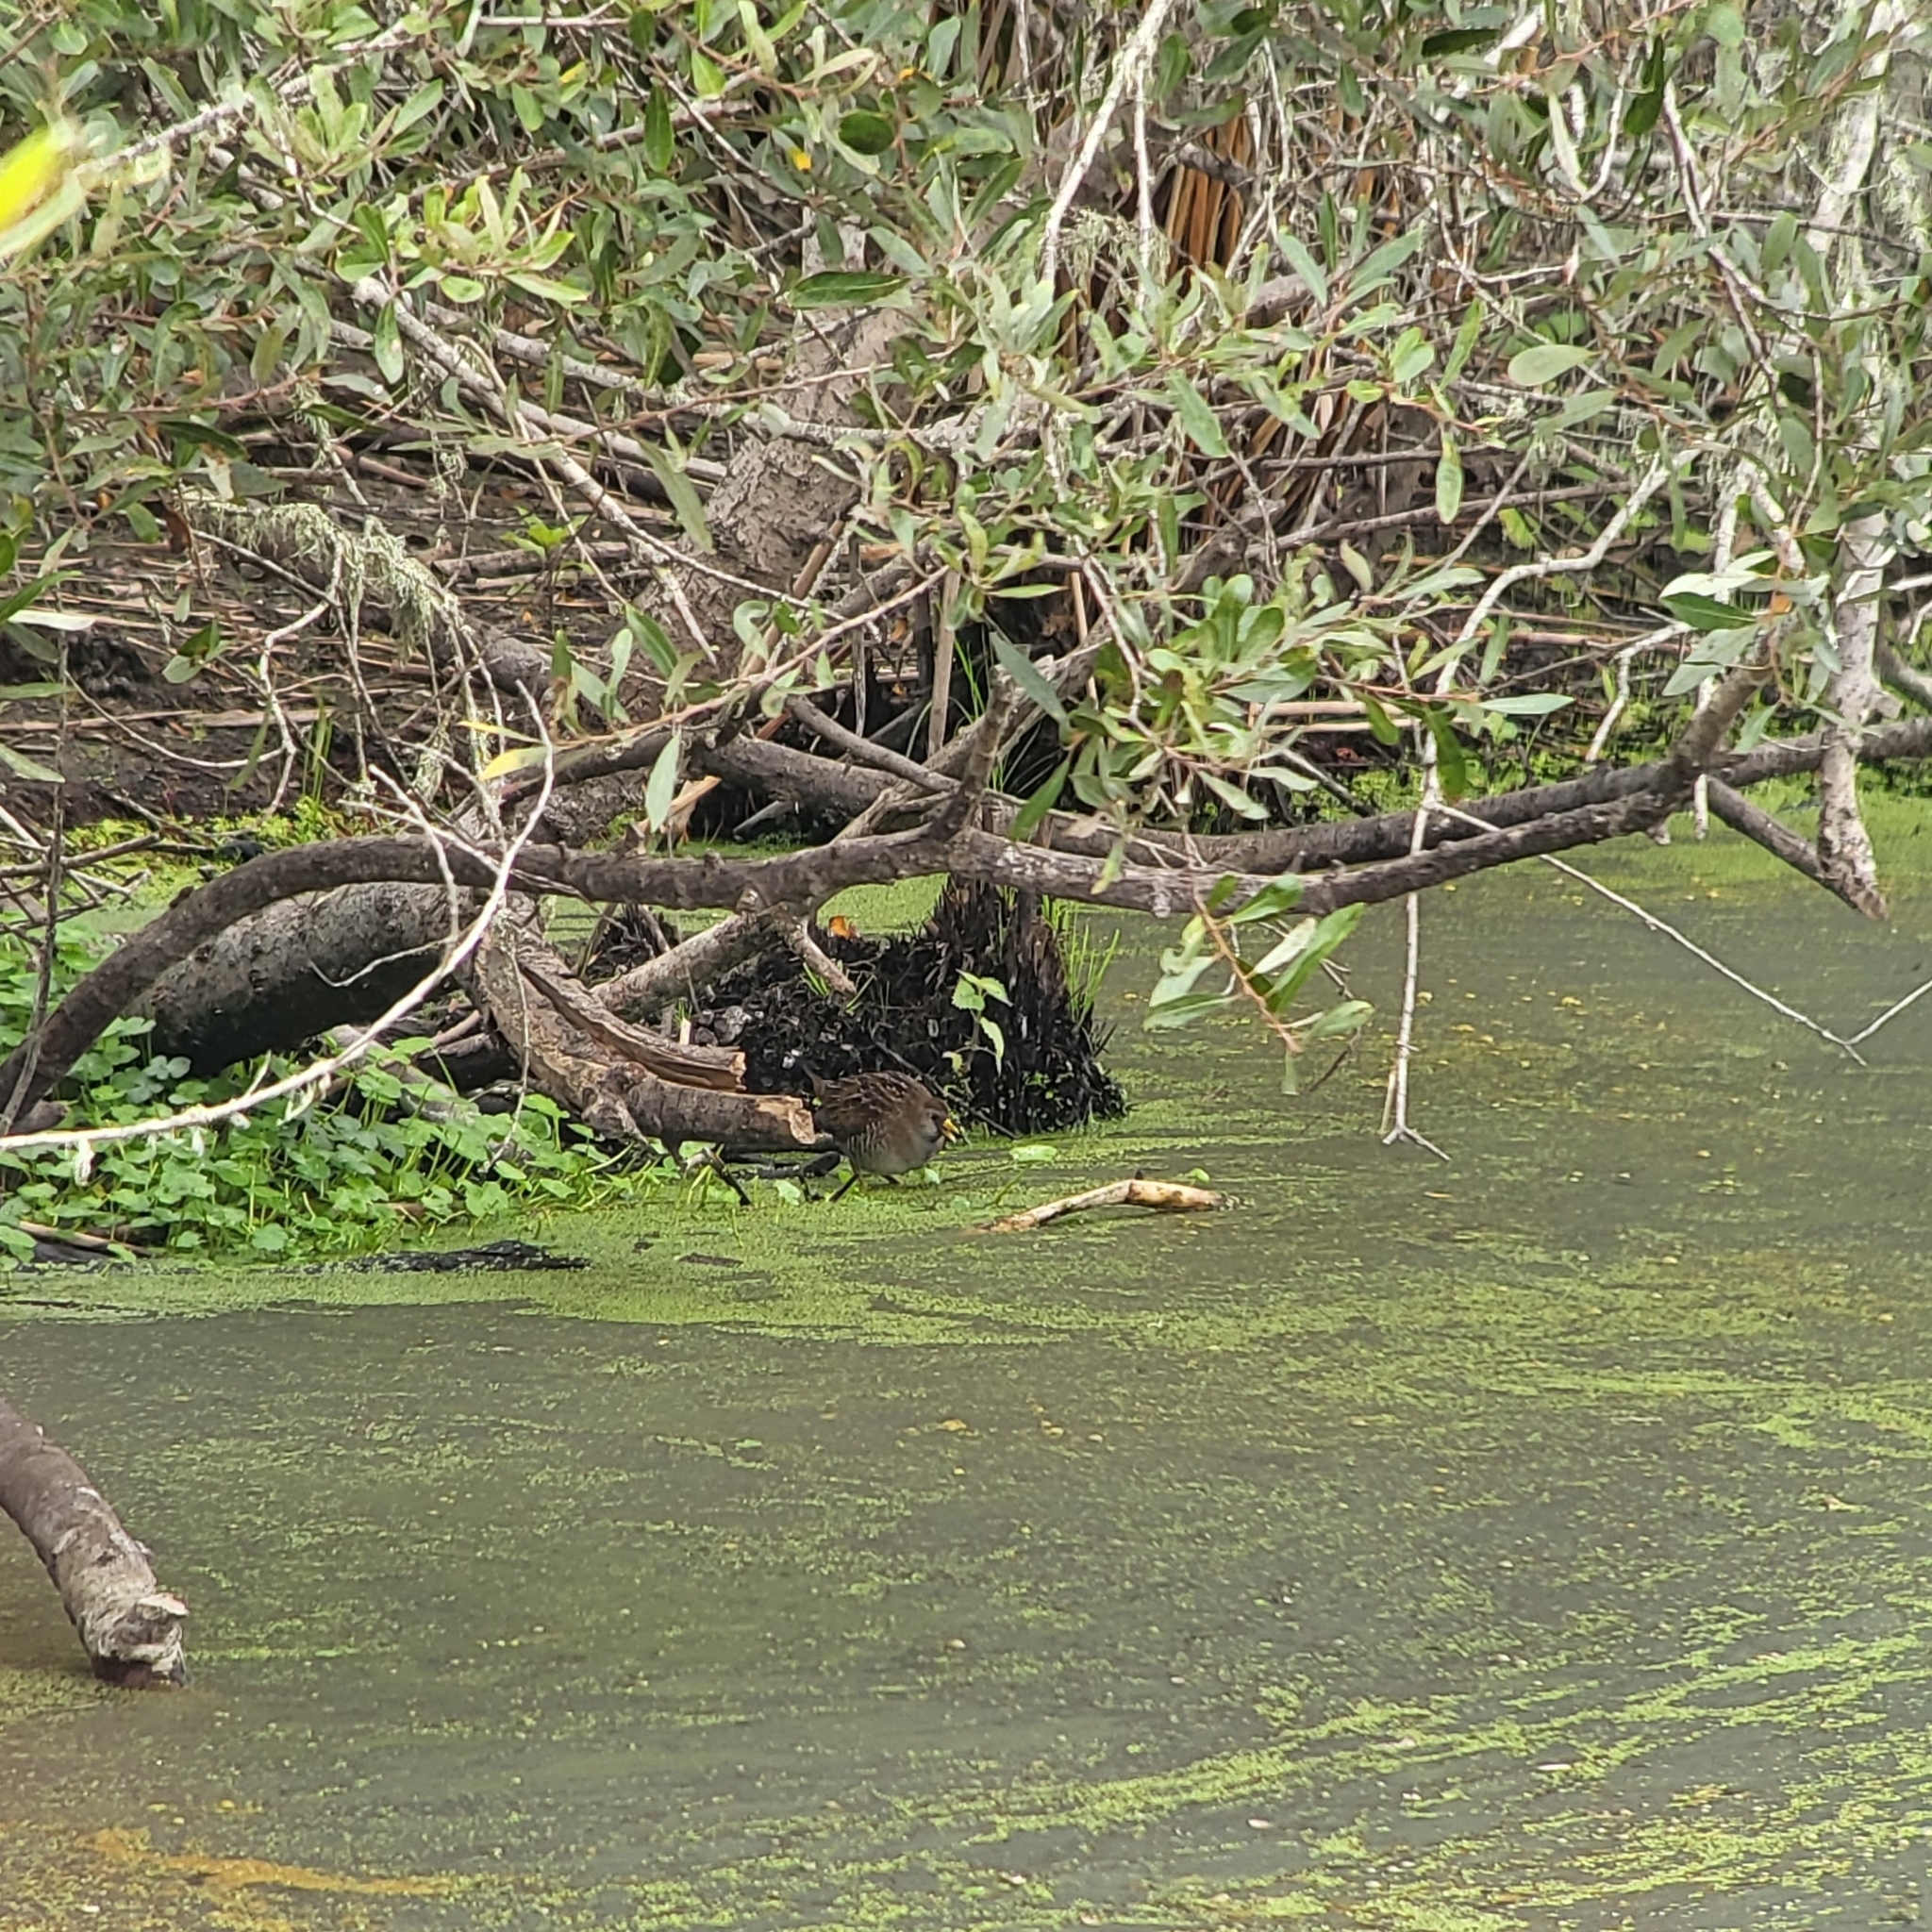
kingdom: Animalia
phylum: Chordata
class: Aves
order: Gruiformes
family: Rallidae
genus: Porzana
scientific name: Porzana carolina
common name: Sora
